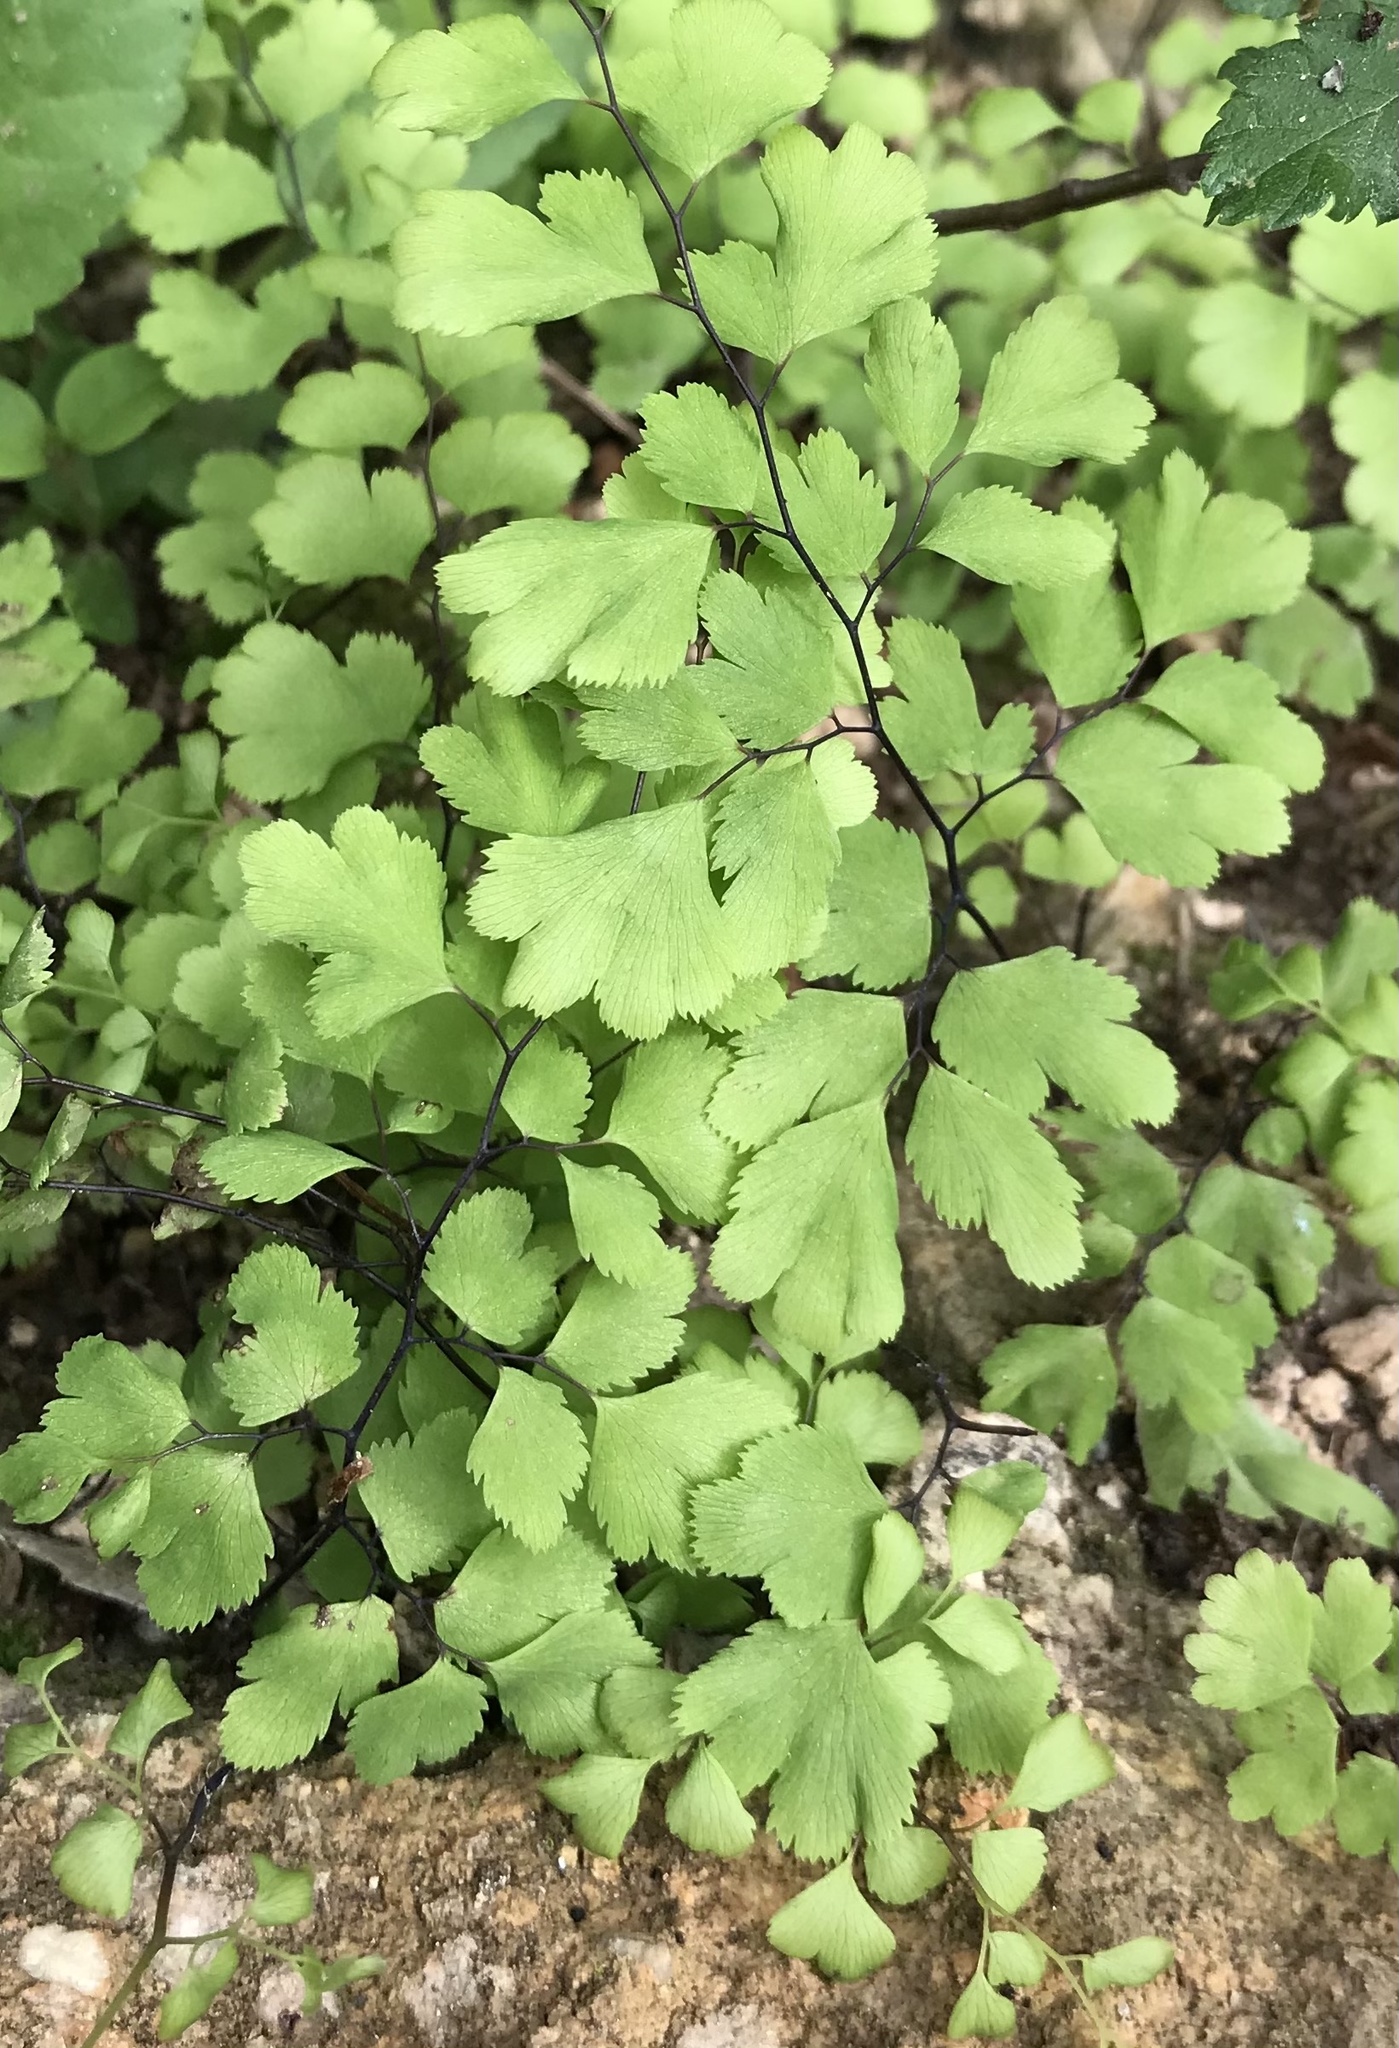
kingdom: Plantae
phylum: Tracheophyta
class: Polypodiopsida
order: Polypodiales
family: Pteridaceae
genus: Adiantum
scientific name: Adiantum capillus-veneris
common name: Maidenhair fern
